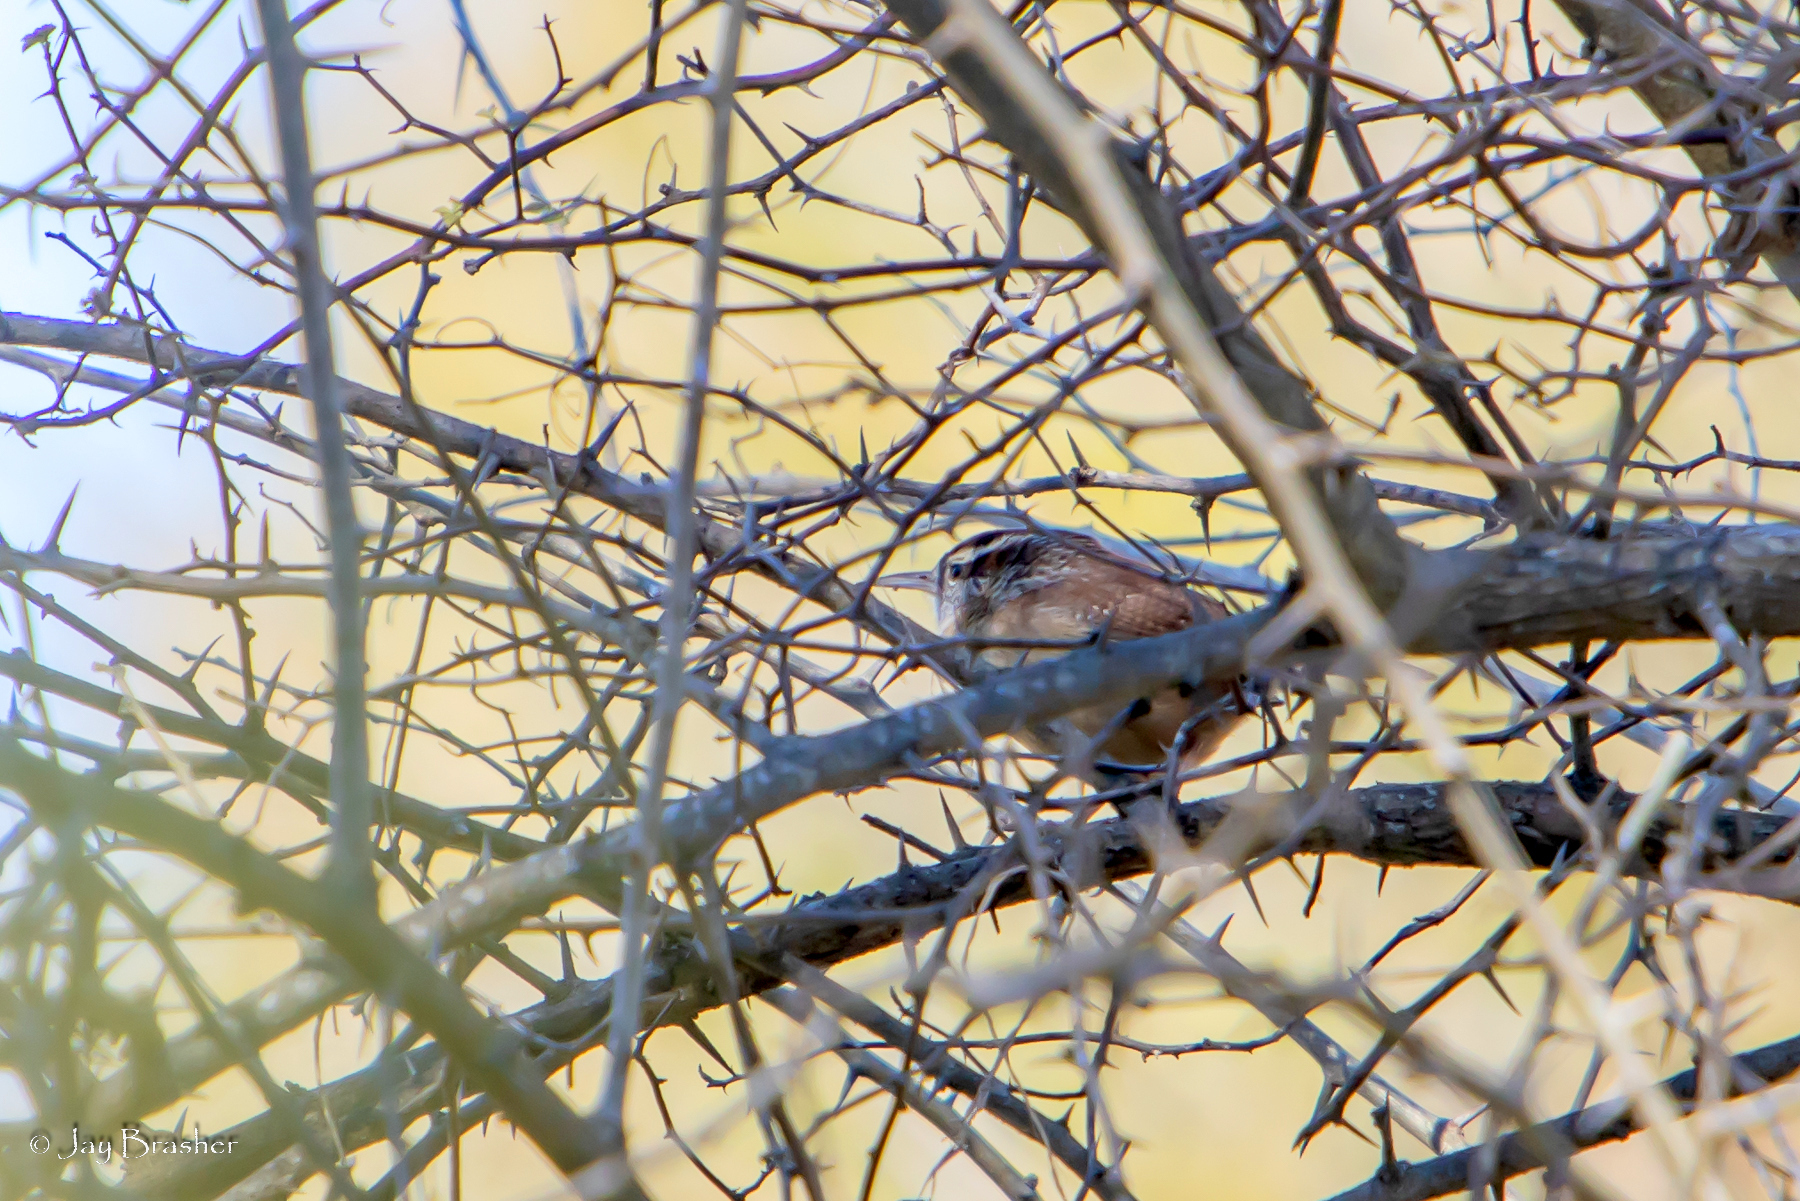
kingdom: Animalia
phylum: Chordata
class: Aves
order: Passeriformes
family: Troglodytidae
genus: Thryothorus
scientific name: Thryothorus ludovicianus
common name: Carolina wren
